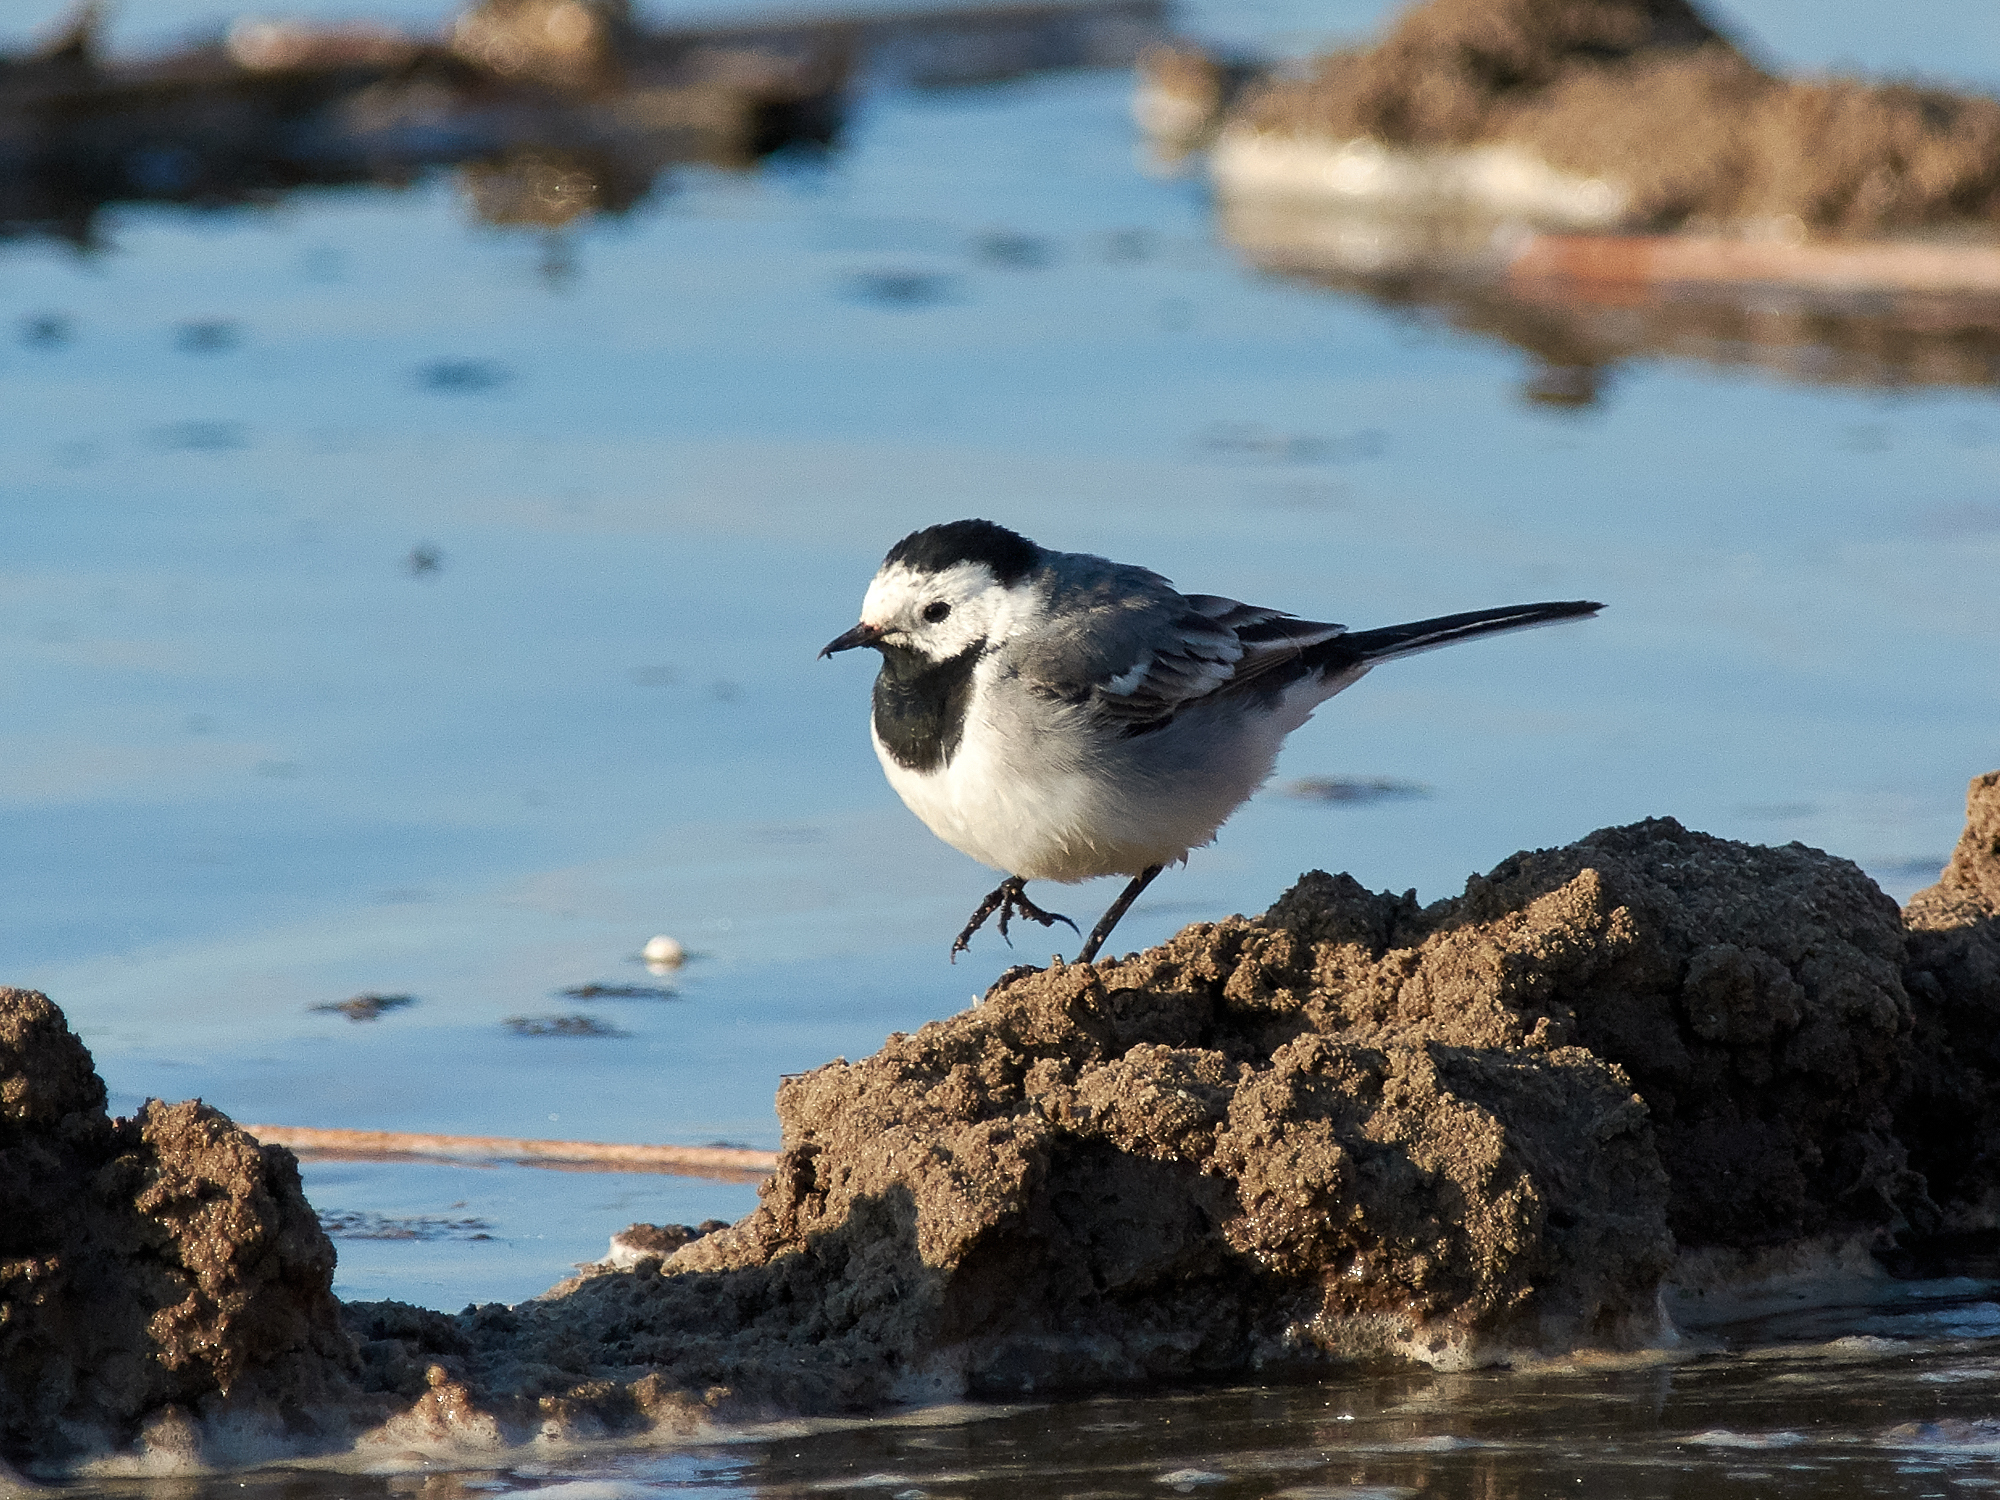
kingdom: Animalia
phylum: Chordata
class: Aves
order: Passeriformes
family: Motacillidae
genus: Motacilla
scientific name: Motacilla alba
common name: White wagtail
